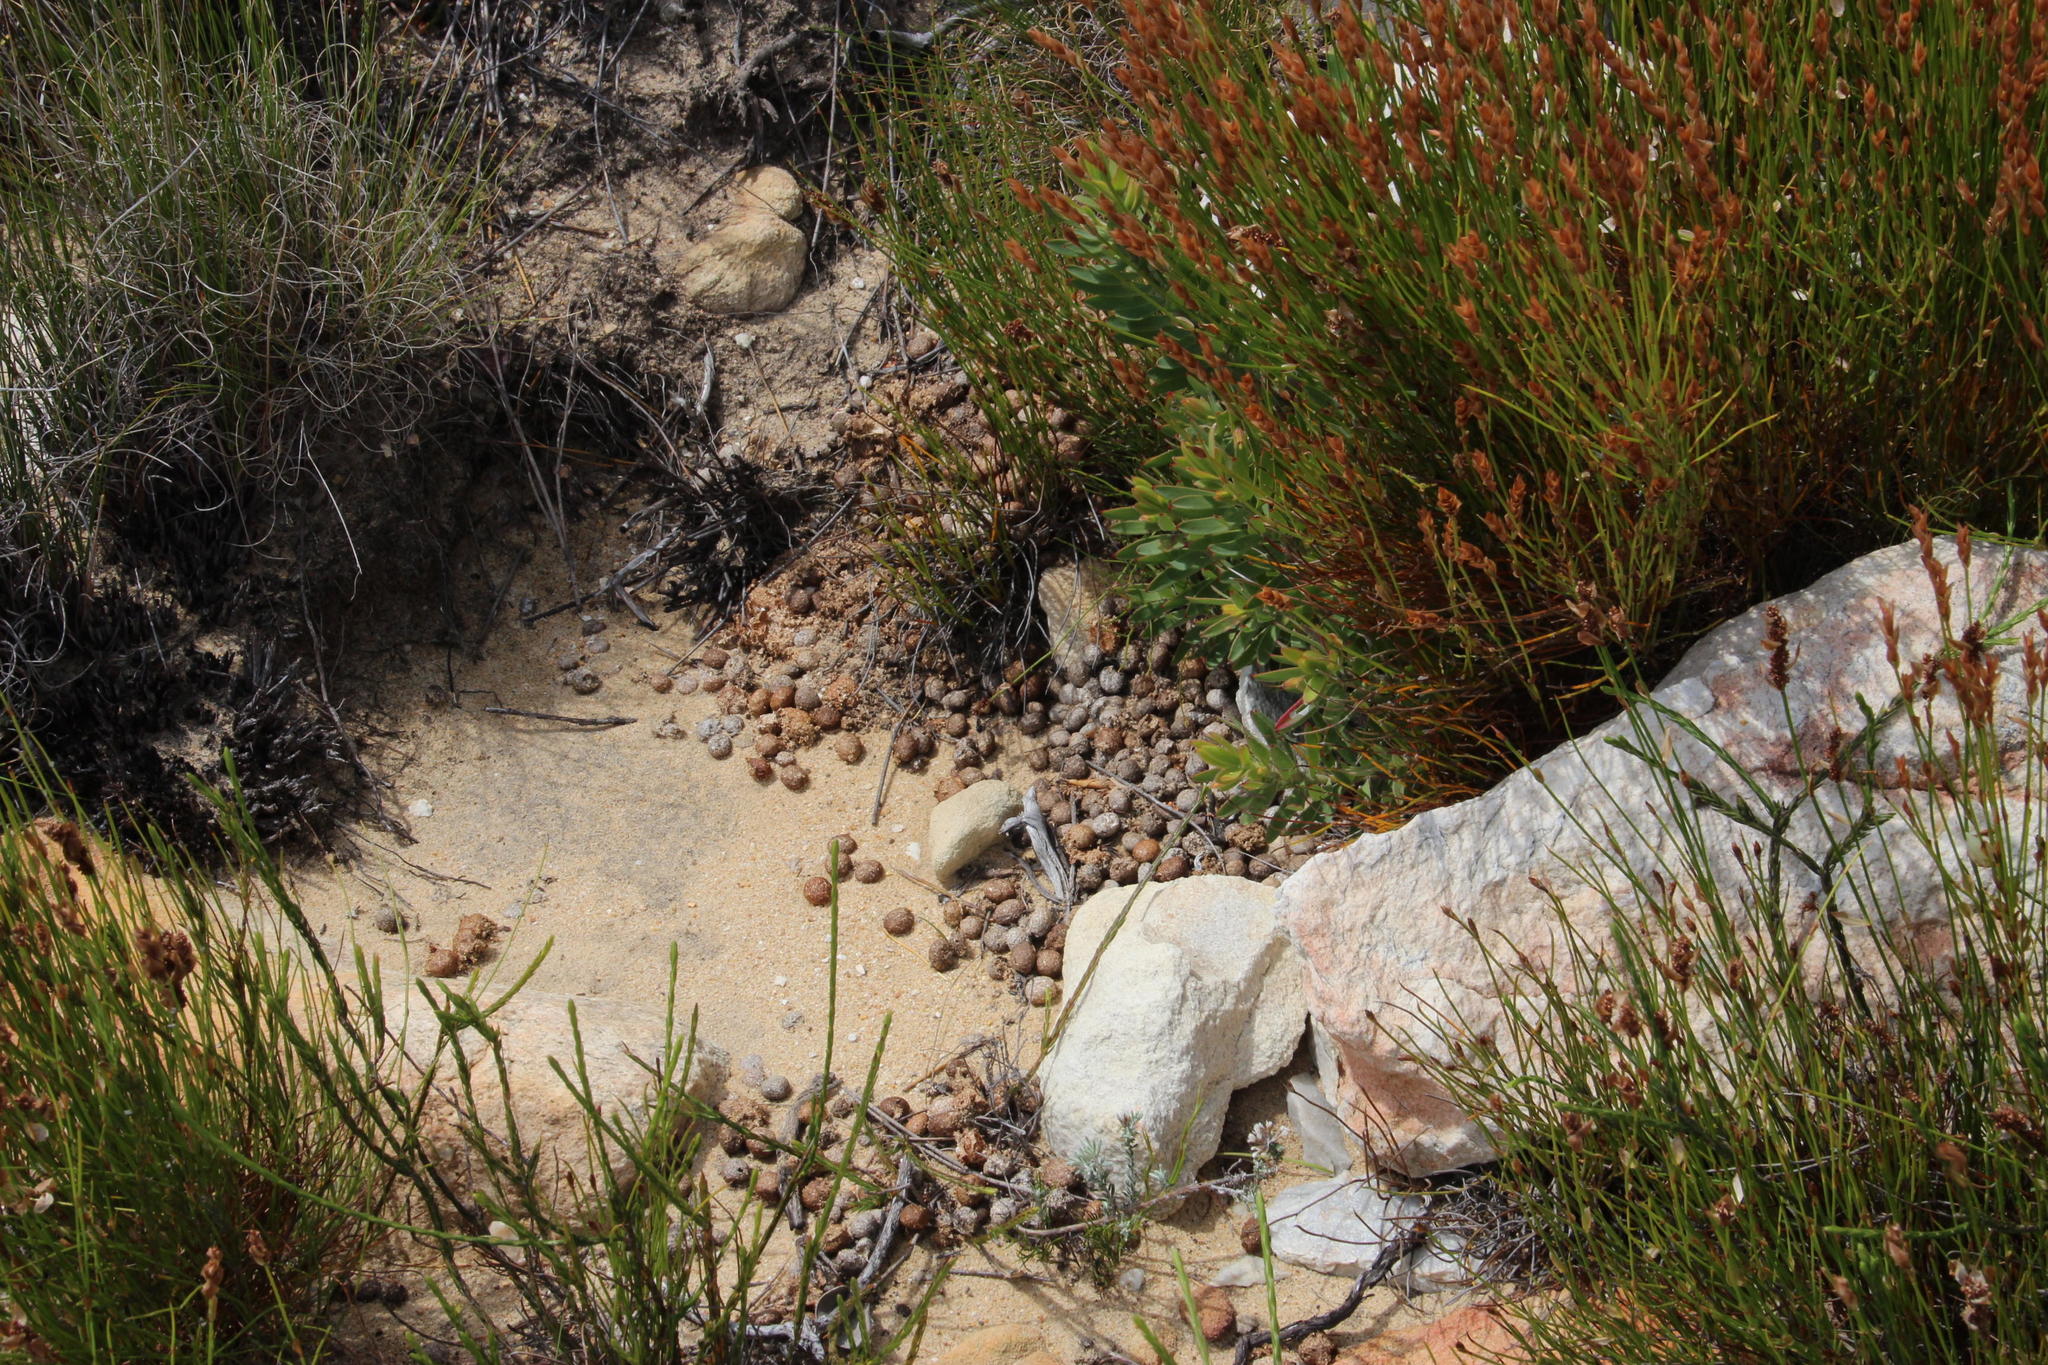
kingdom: Animalia
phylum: Chordata
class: Mammalia
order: Lagomorpha
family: Leporidae
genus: Pronolagus
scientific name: Pronolagus saundersiae
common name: Hewitt's red rock hare
